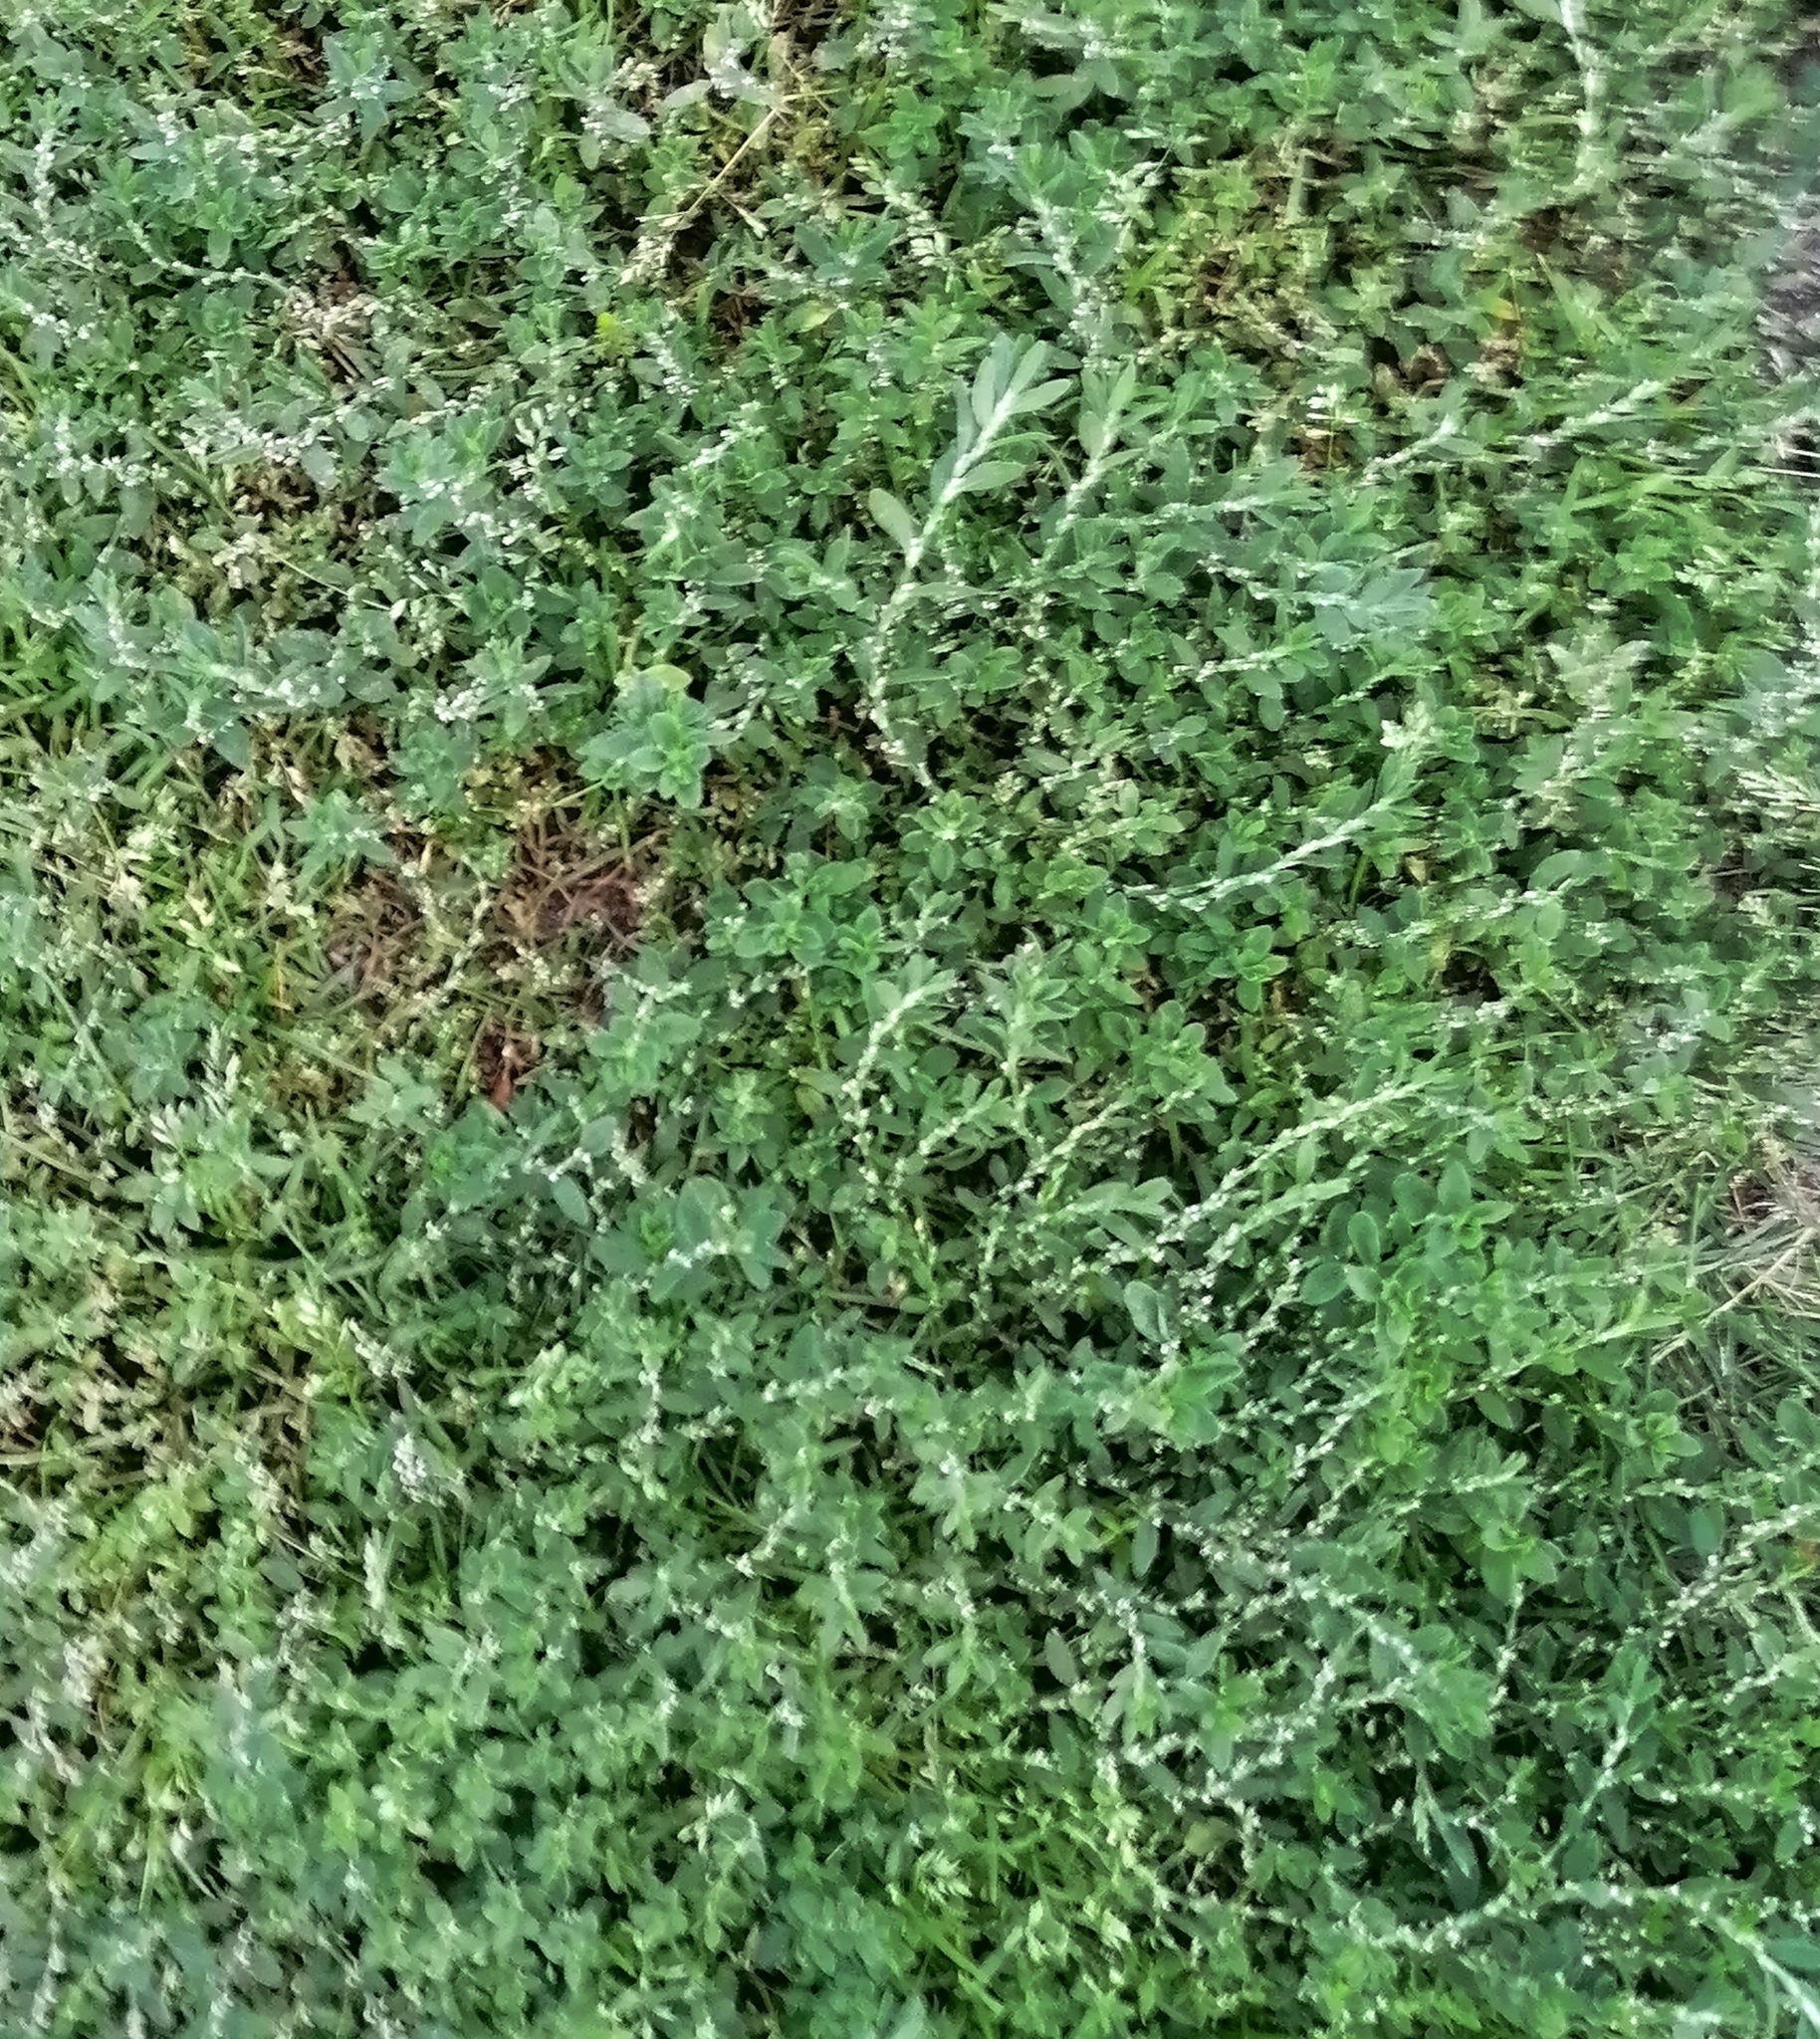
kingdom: Plantae
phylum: Tracheophyta
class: Magnoliopsida
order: Caryophyllales
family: Polygonaceae
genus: Polygonum
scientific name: Polygonum aviculare
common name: Prostrate knotweed
